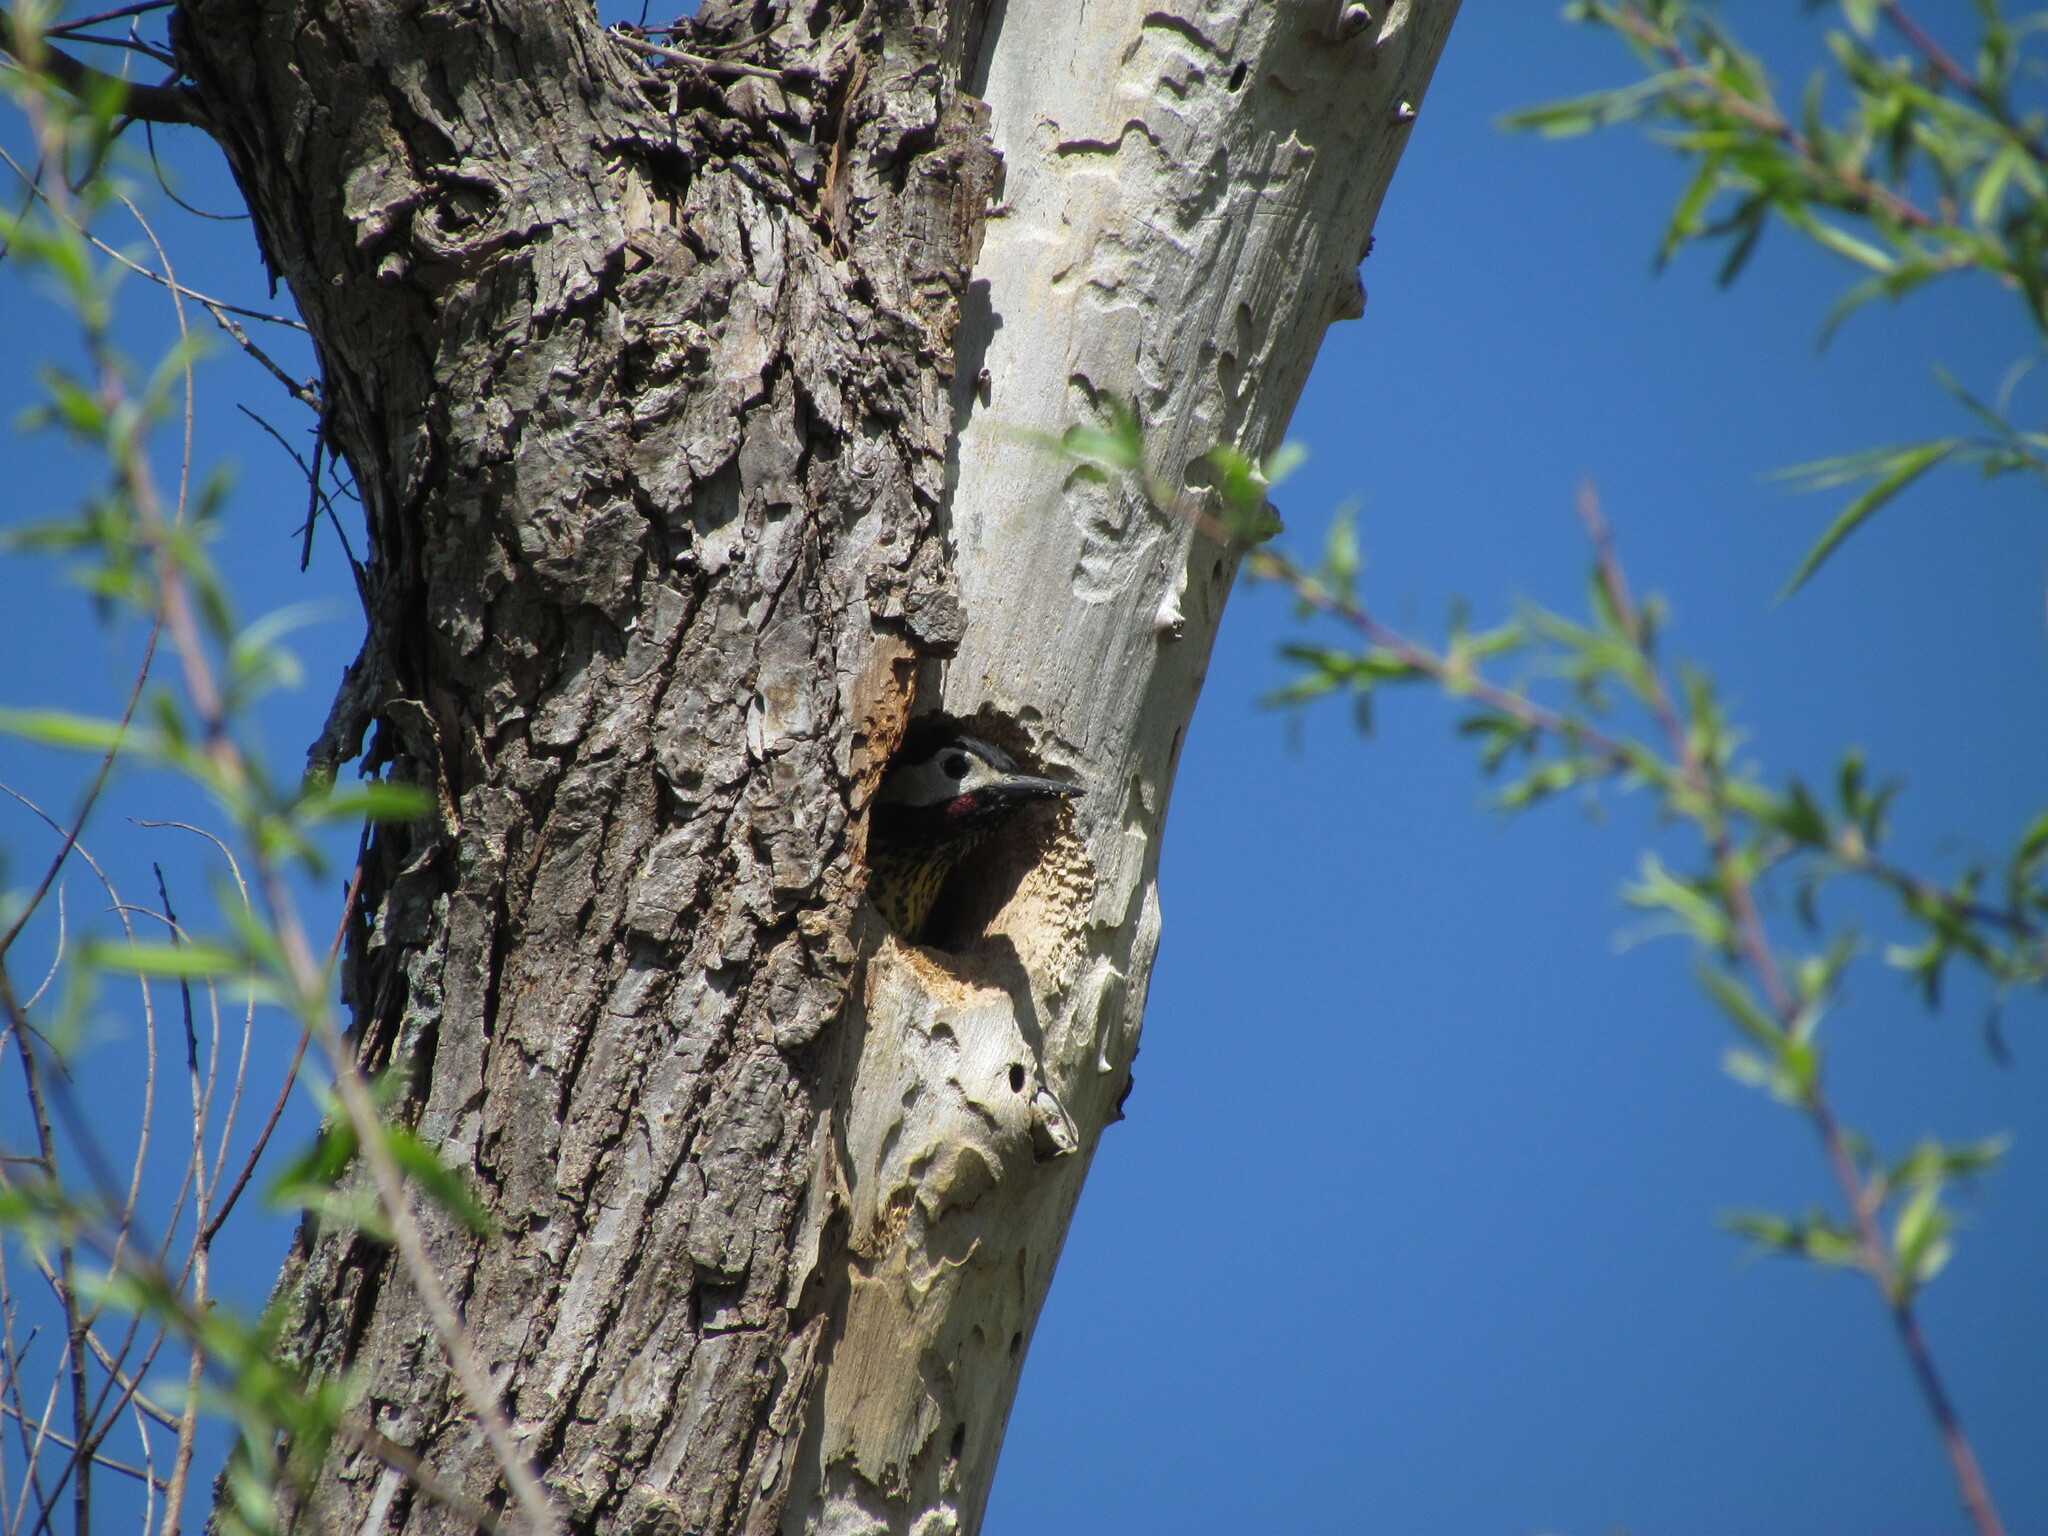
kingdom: Animalia
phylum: Chordata
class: Aves
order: Piciformes
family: Picidae
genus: Colaptes
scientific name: Colaptes melanochloros
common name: Green-barred woodpecker
